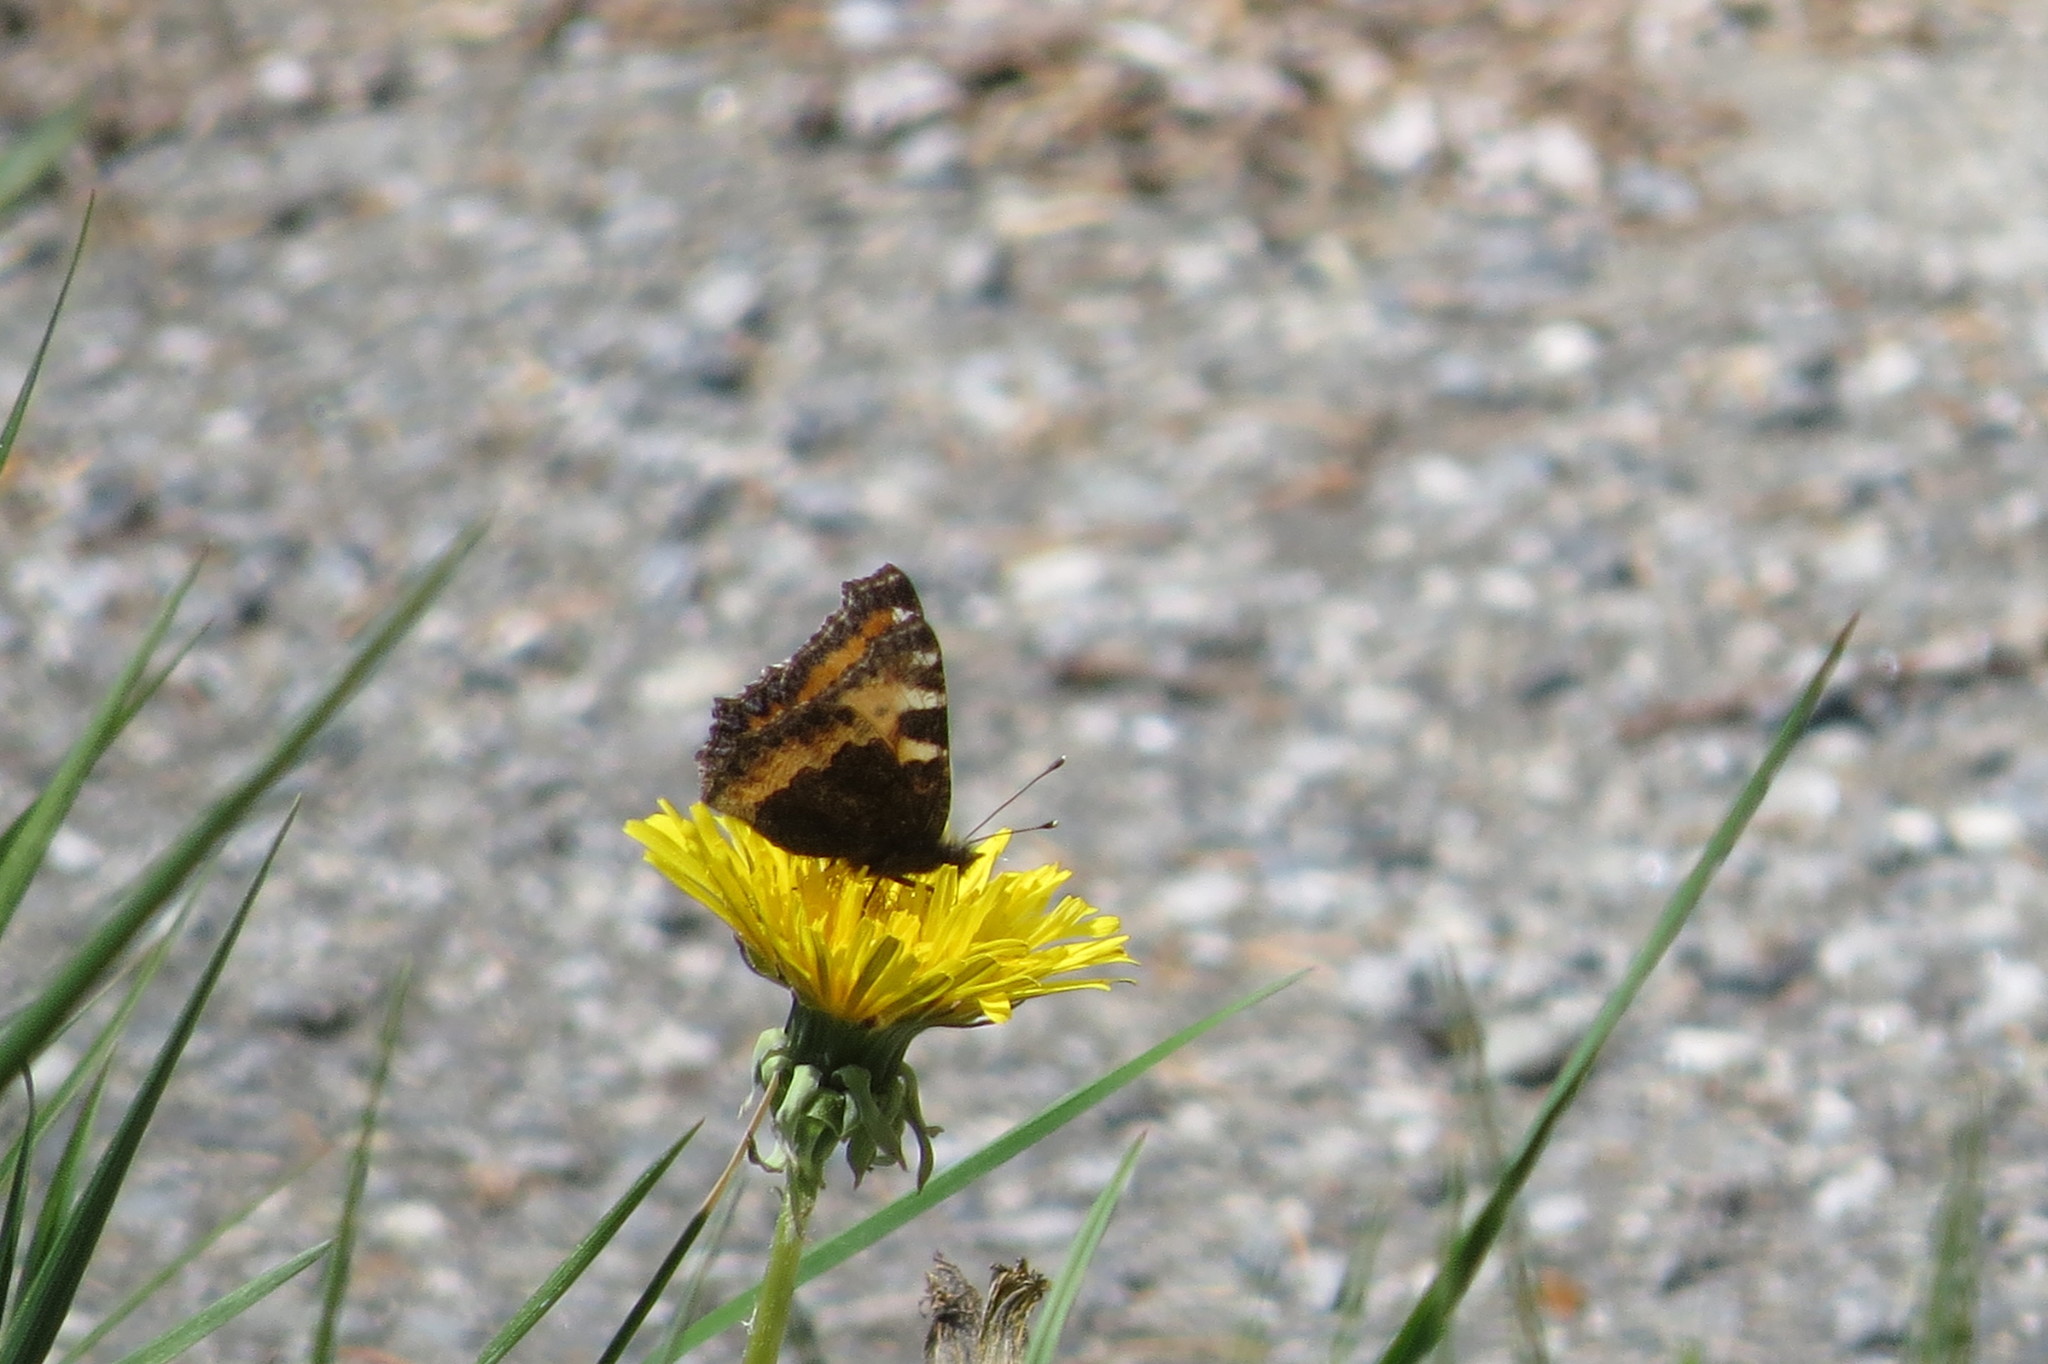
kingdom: Animalia
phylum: Arthropoda
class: Insecta
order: Lepidoptera
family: Nymphalidae
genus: Aglais
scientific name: Aglais urticae
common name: Small tortoiseshell
